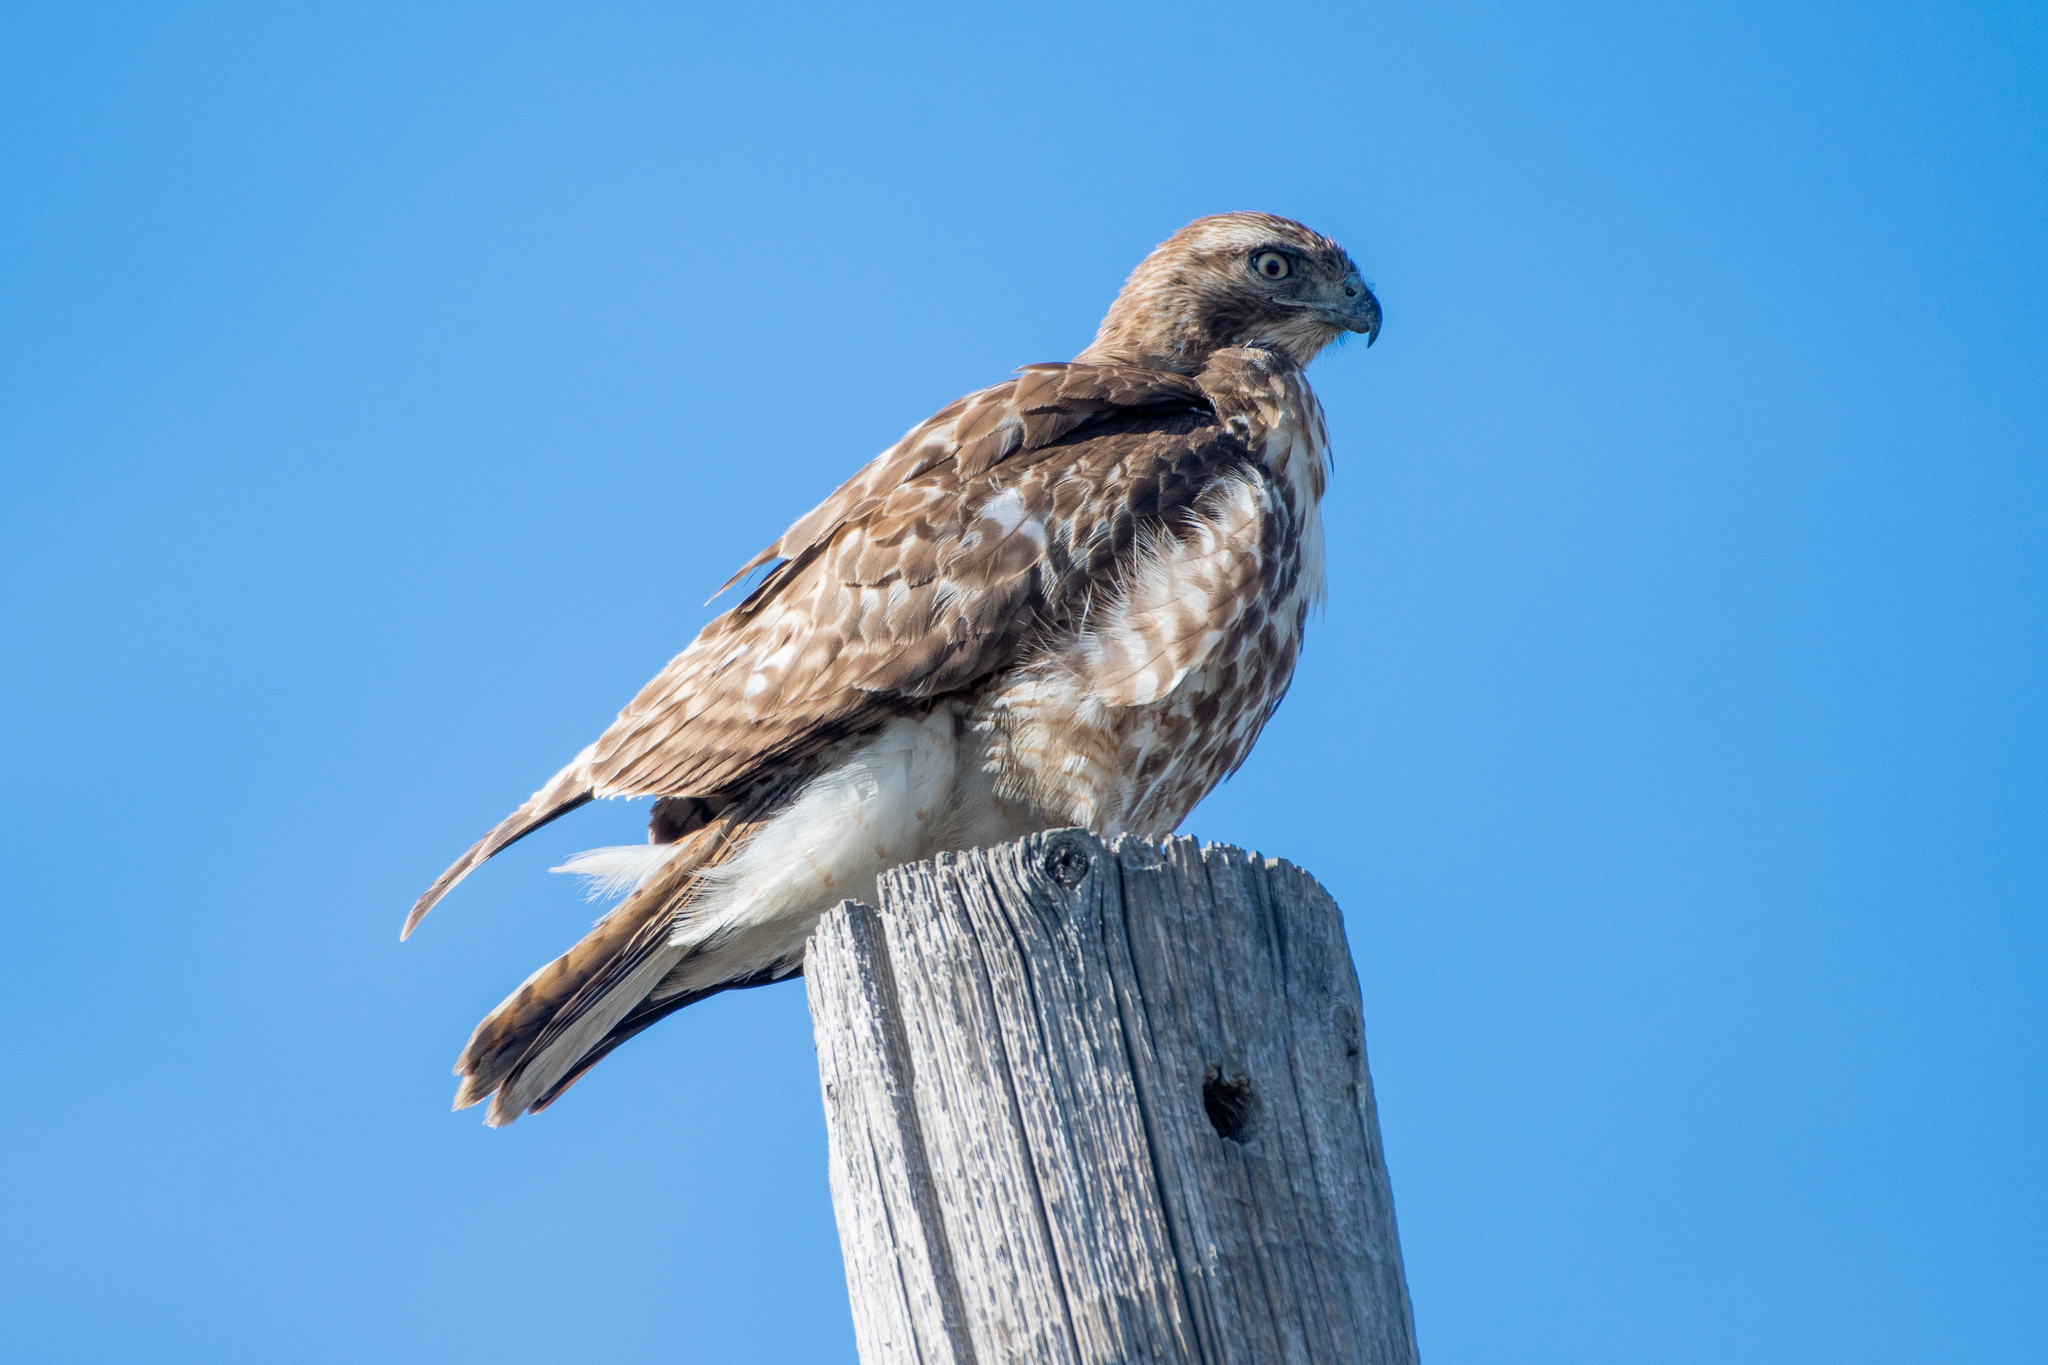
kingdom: Animalia
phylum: Chordata
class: Aves
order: Accipitriformes
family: Accipitridae
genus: Buteo
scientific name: Buteo jamaicensis
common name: Red-tailed hawk
